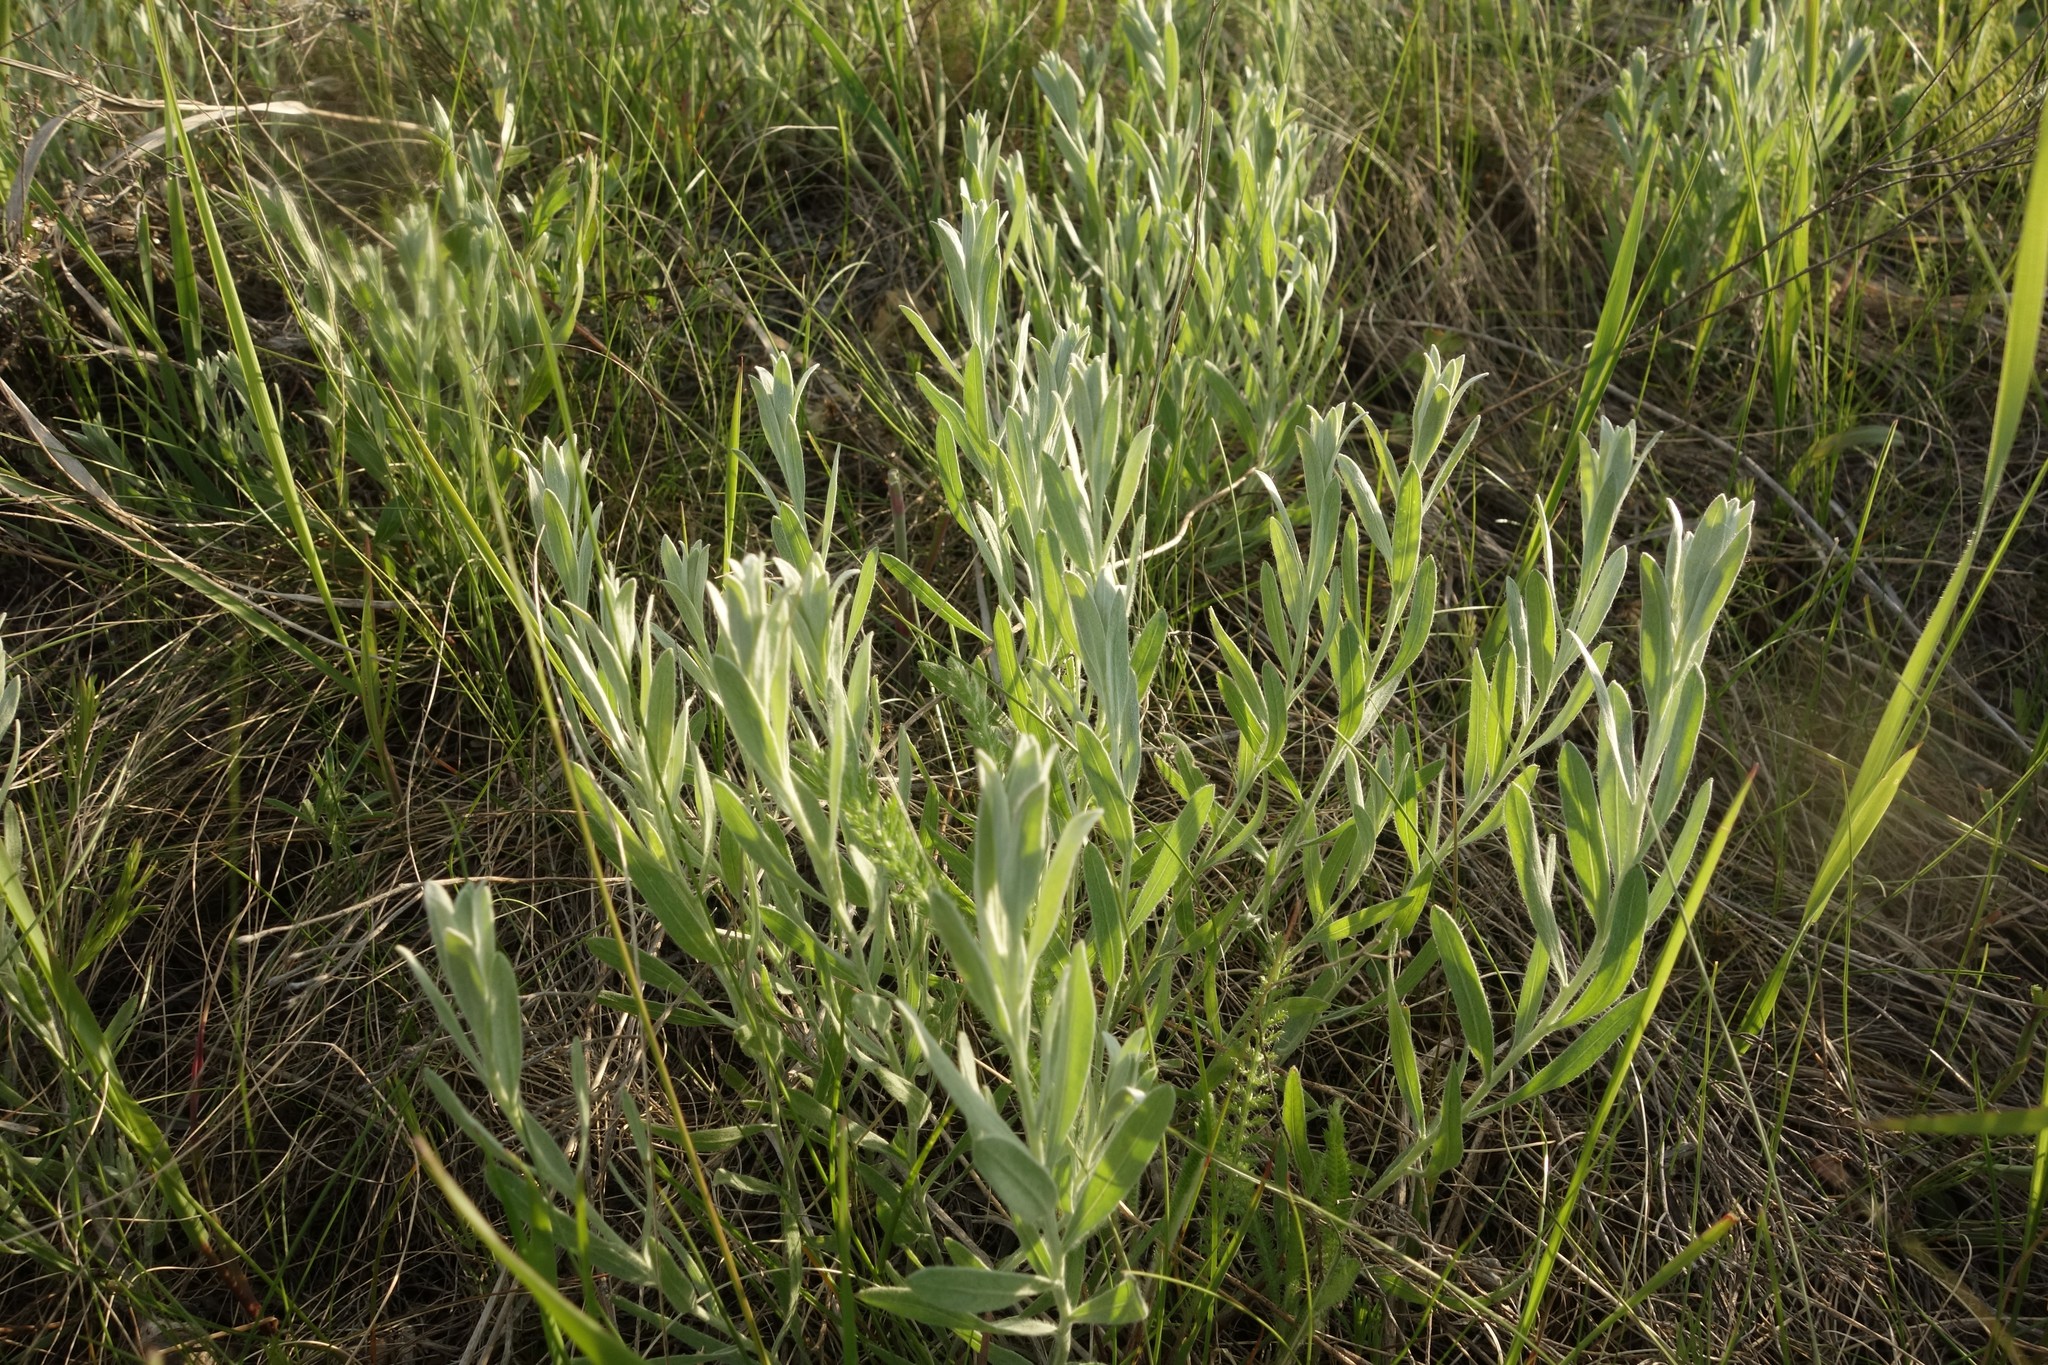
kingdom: Plantae
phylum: Tracheophyta
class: Magnoliopsida
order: Asterales
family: Asteraceae
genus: Galatella
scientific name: Galatella villosa
